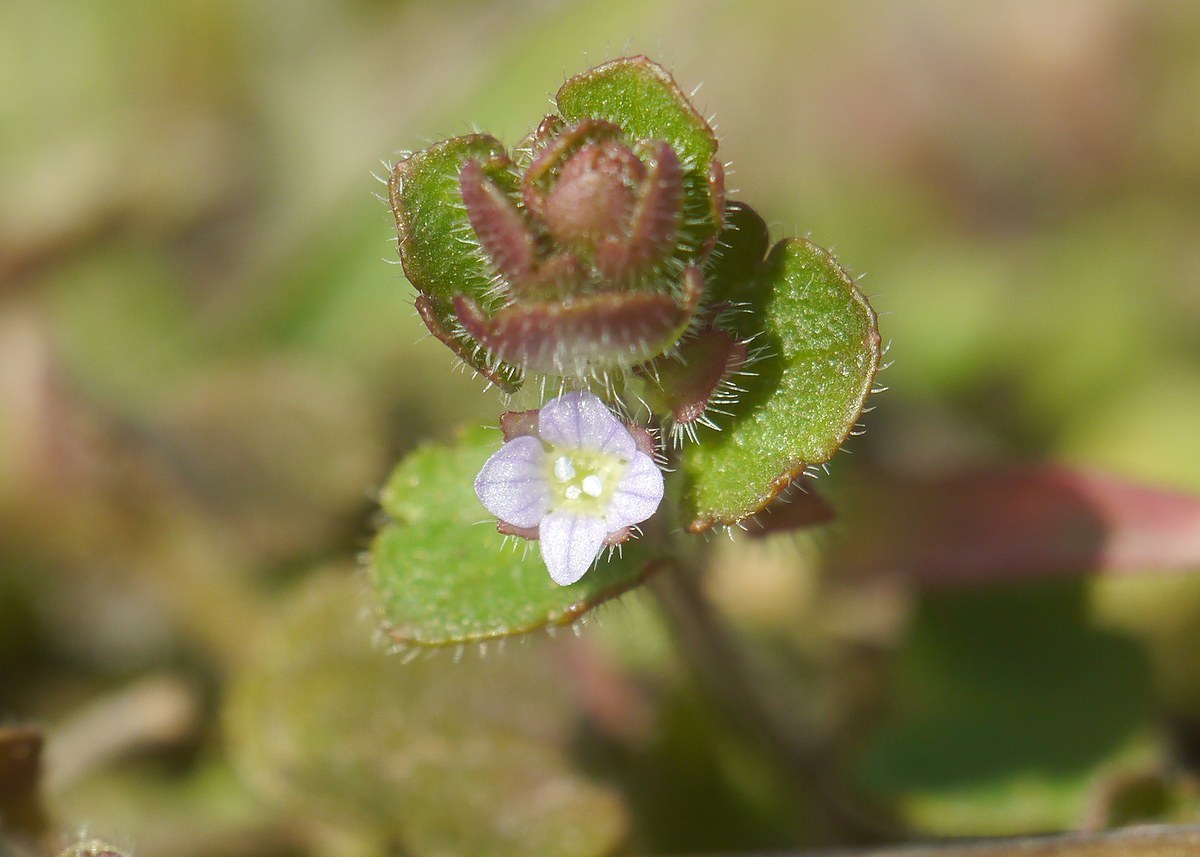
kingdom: Plantae
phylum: Tracheophyta
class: Magnoliopsida
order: Lamiales
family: Plantaginaceae
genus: Veronica
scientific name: Veronica sublobata
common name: False ivy-leaved speedwell
